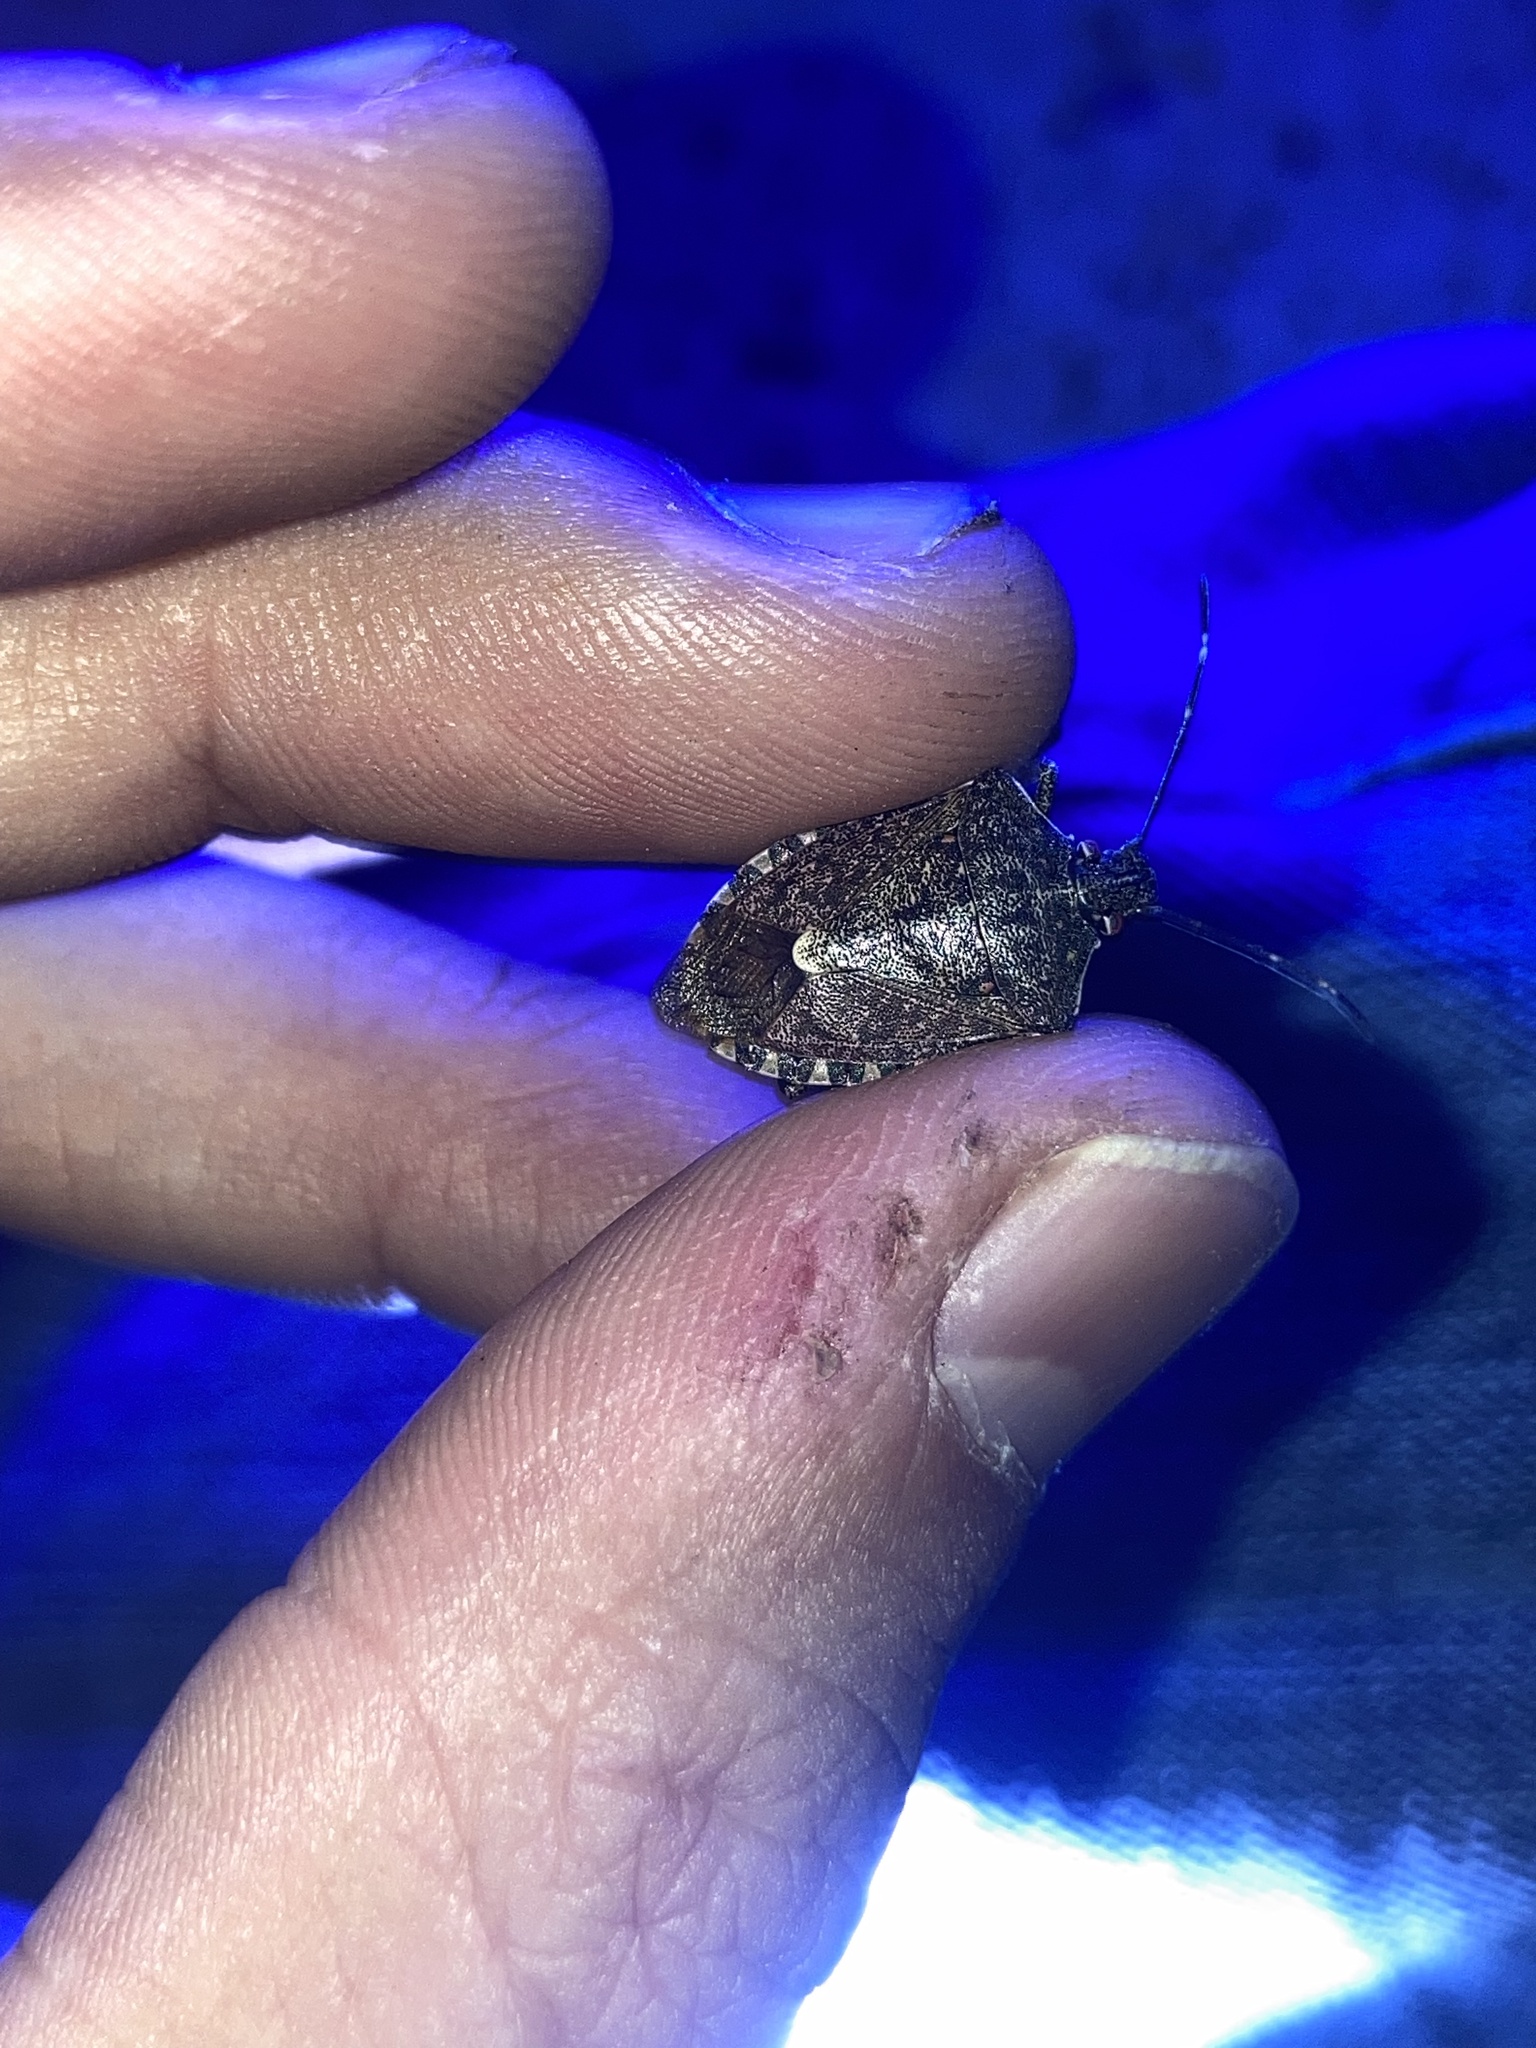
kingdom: Animalia
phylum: Arthropoda
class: Insecta
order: Hemiptera
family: Pentatomidae
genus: Halyomorpha
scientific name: Halyomorpha halys
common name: Brown marmorated stink bug
